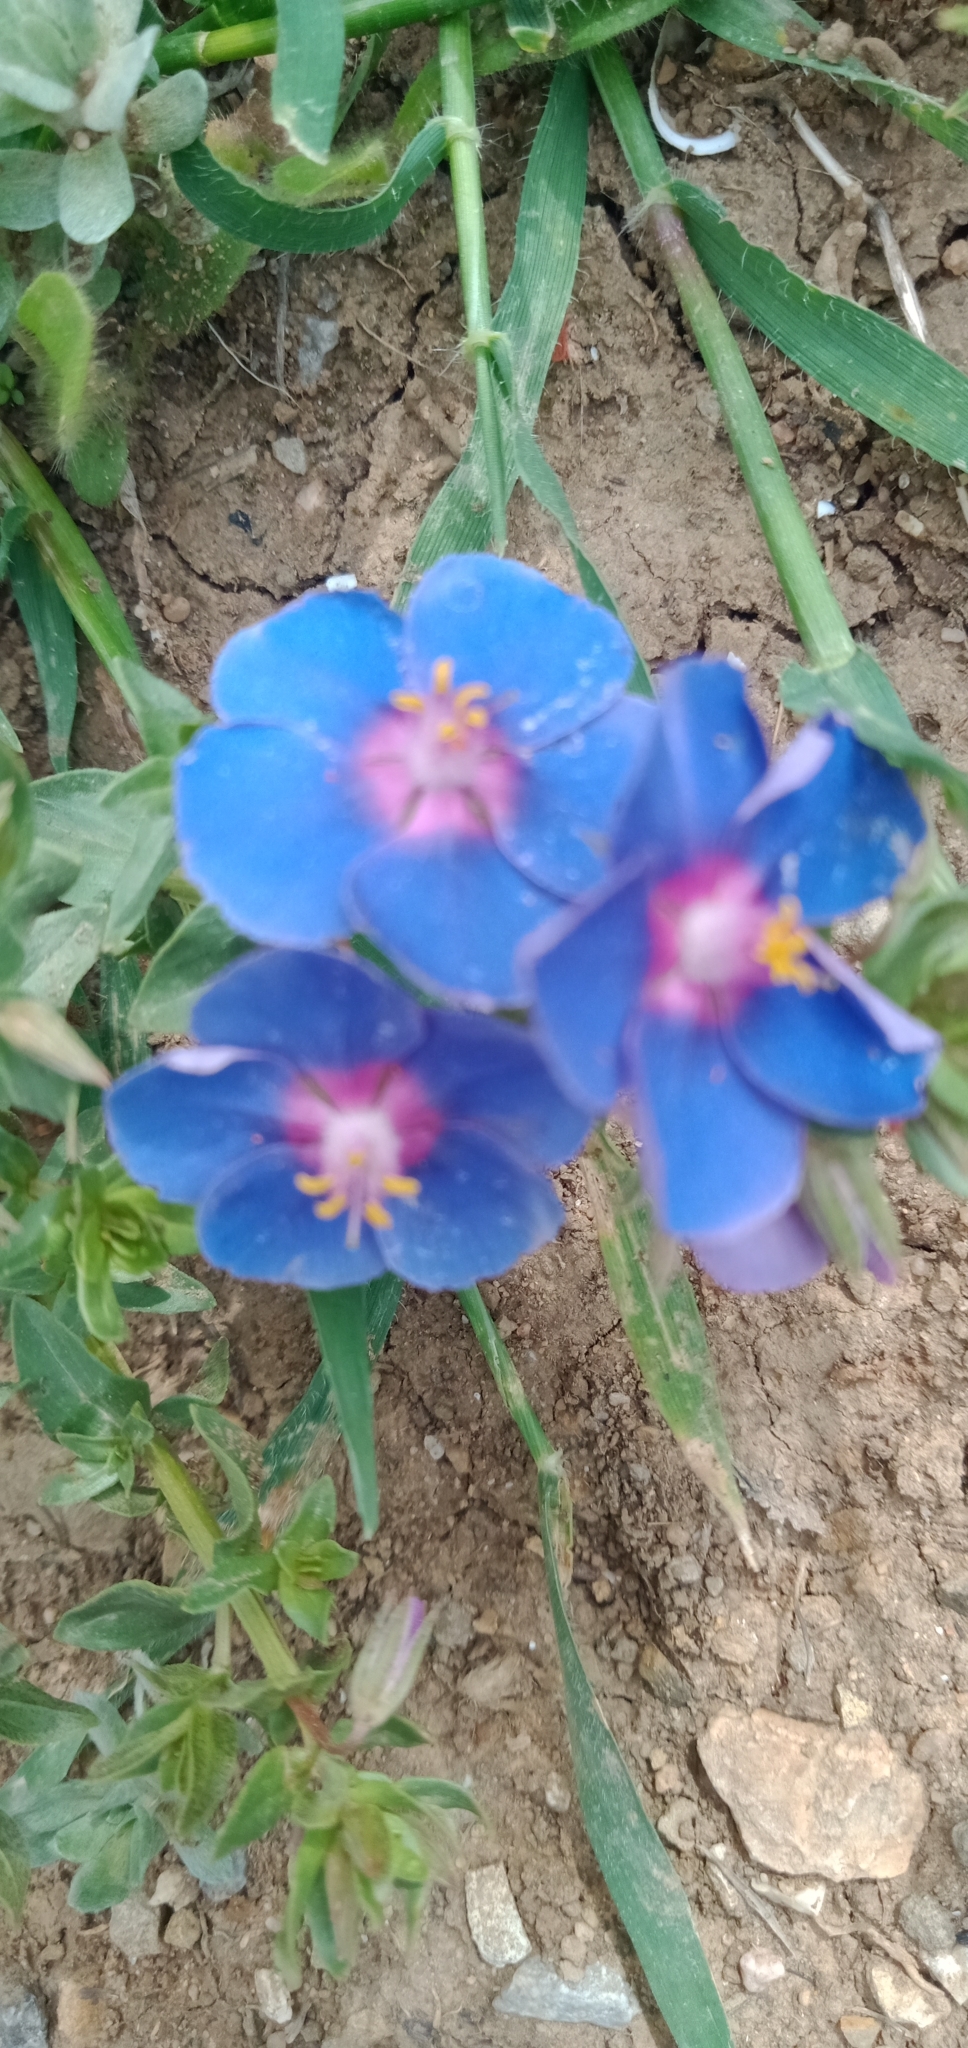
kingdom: Plantae
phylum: Tracheophyta
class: Magnoliopsida
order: Ericales
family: Primulaceae
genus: Lysimachia
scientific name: Lysimachia arvensis
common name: Scarlet pimpernel
